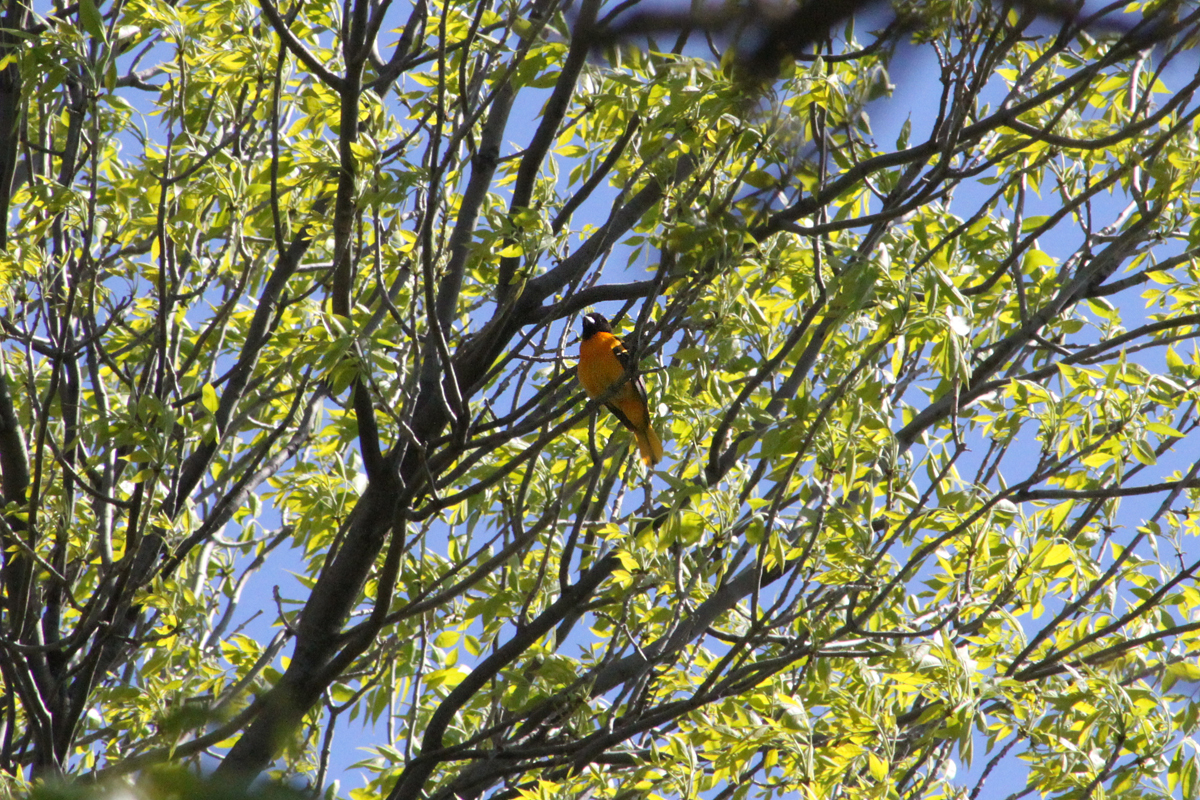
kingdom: Animalia
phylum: Chordata
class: Aves
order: Passeriformes
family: Icteridae
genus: Icterus
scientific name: Icterus galbula
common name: Baltimore oriole
